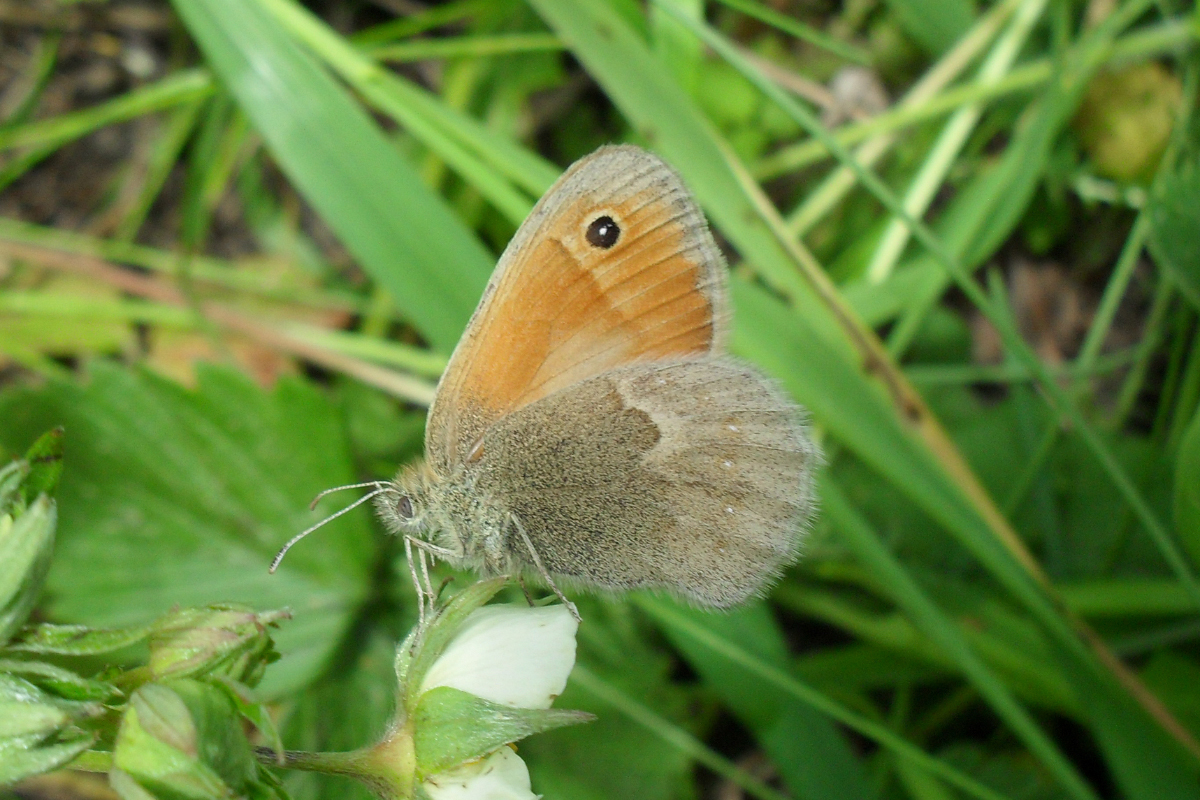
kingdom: Animalia
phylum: Arthropoda
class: Insecta
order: Lepidoptera
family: Nymphalidae
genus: Coenonympha
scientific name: Coenonympha pamphilus
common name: Small heath
